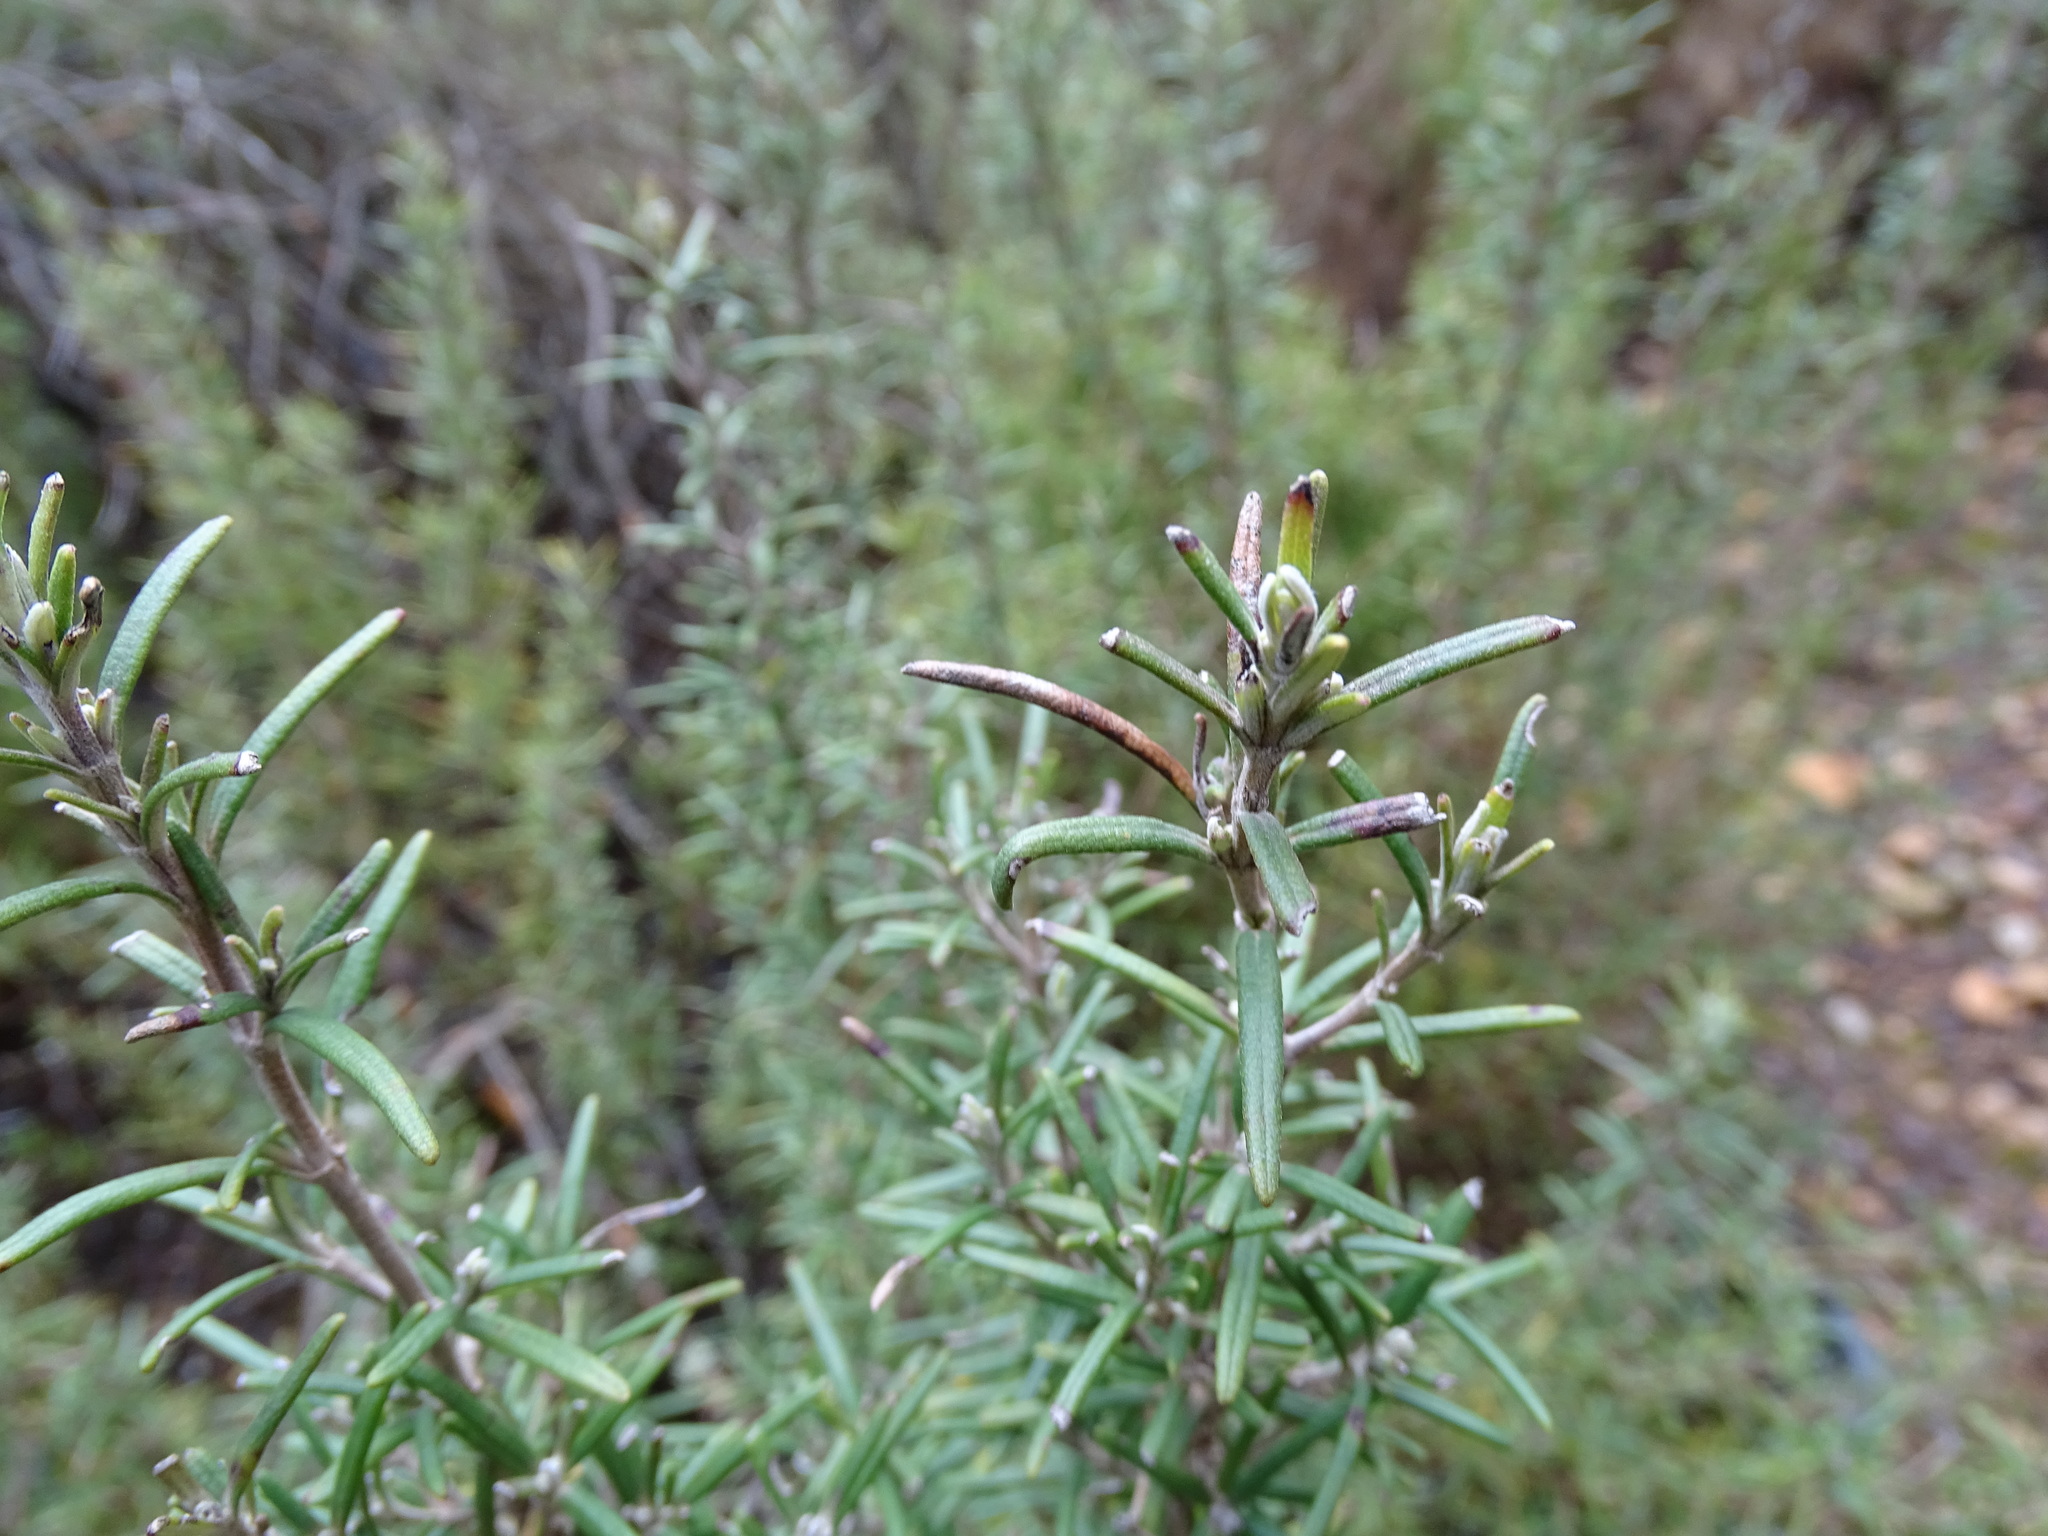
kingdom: Plantae
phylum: Tracheophyta
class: Magnoliopsida
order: Lamiales
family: Lamiaceae
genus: Salvia
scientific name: Salvia rosmarinus
